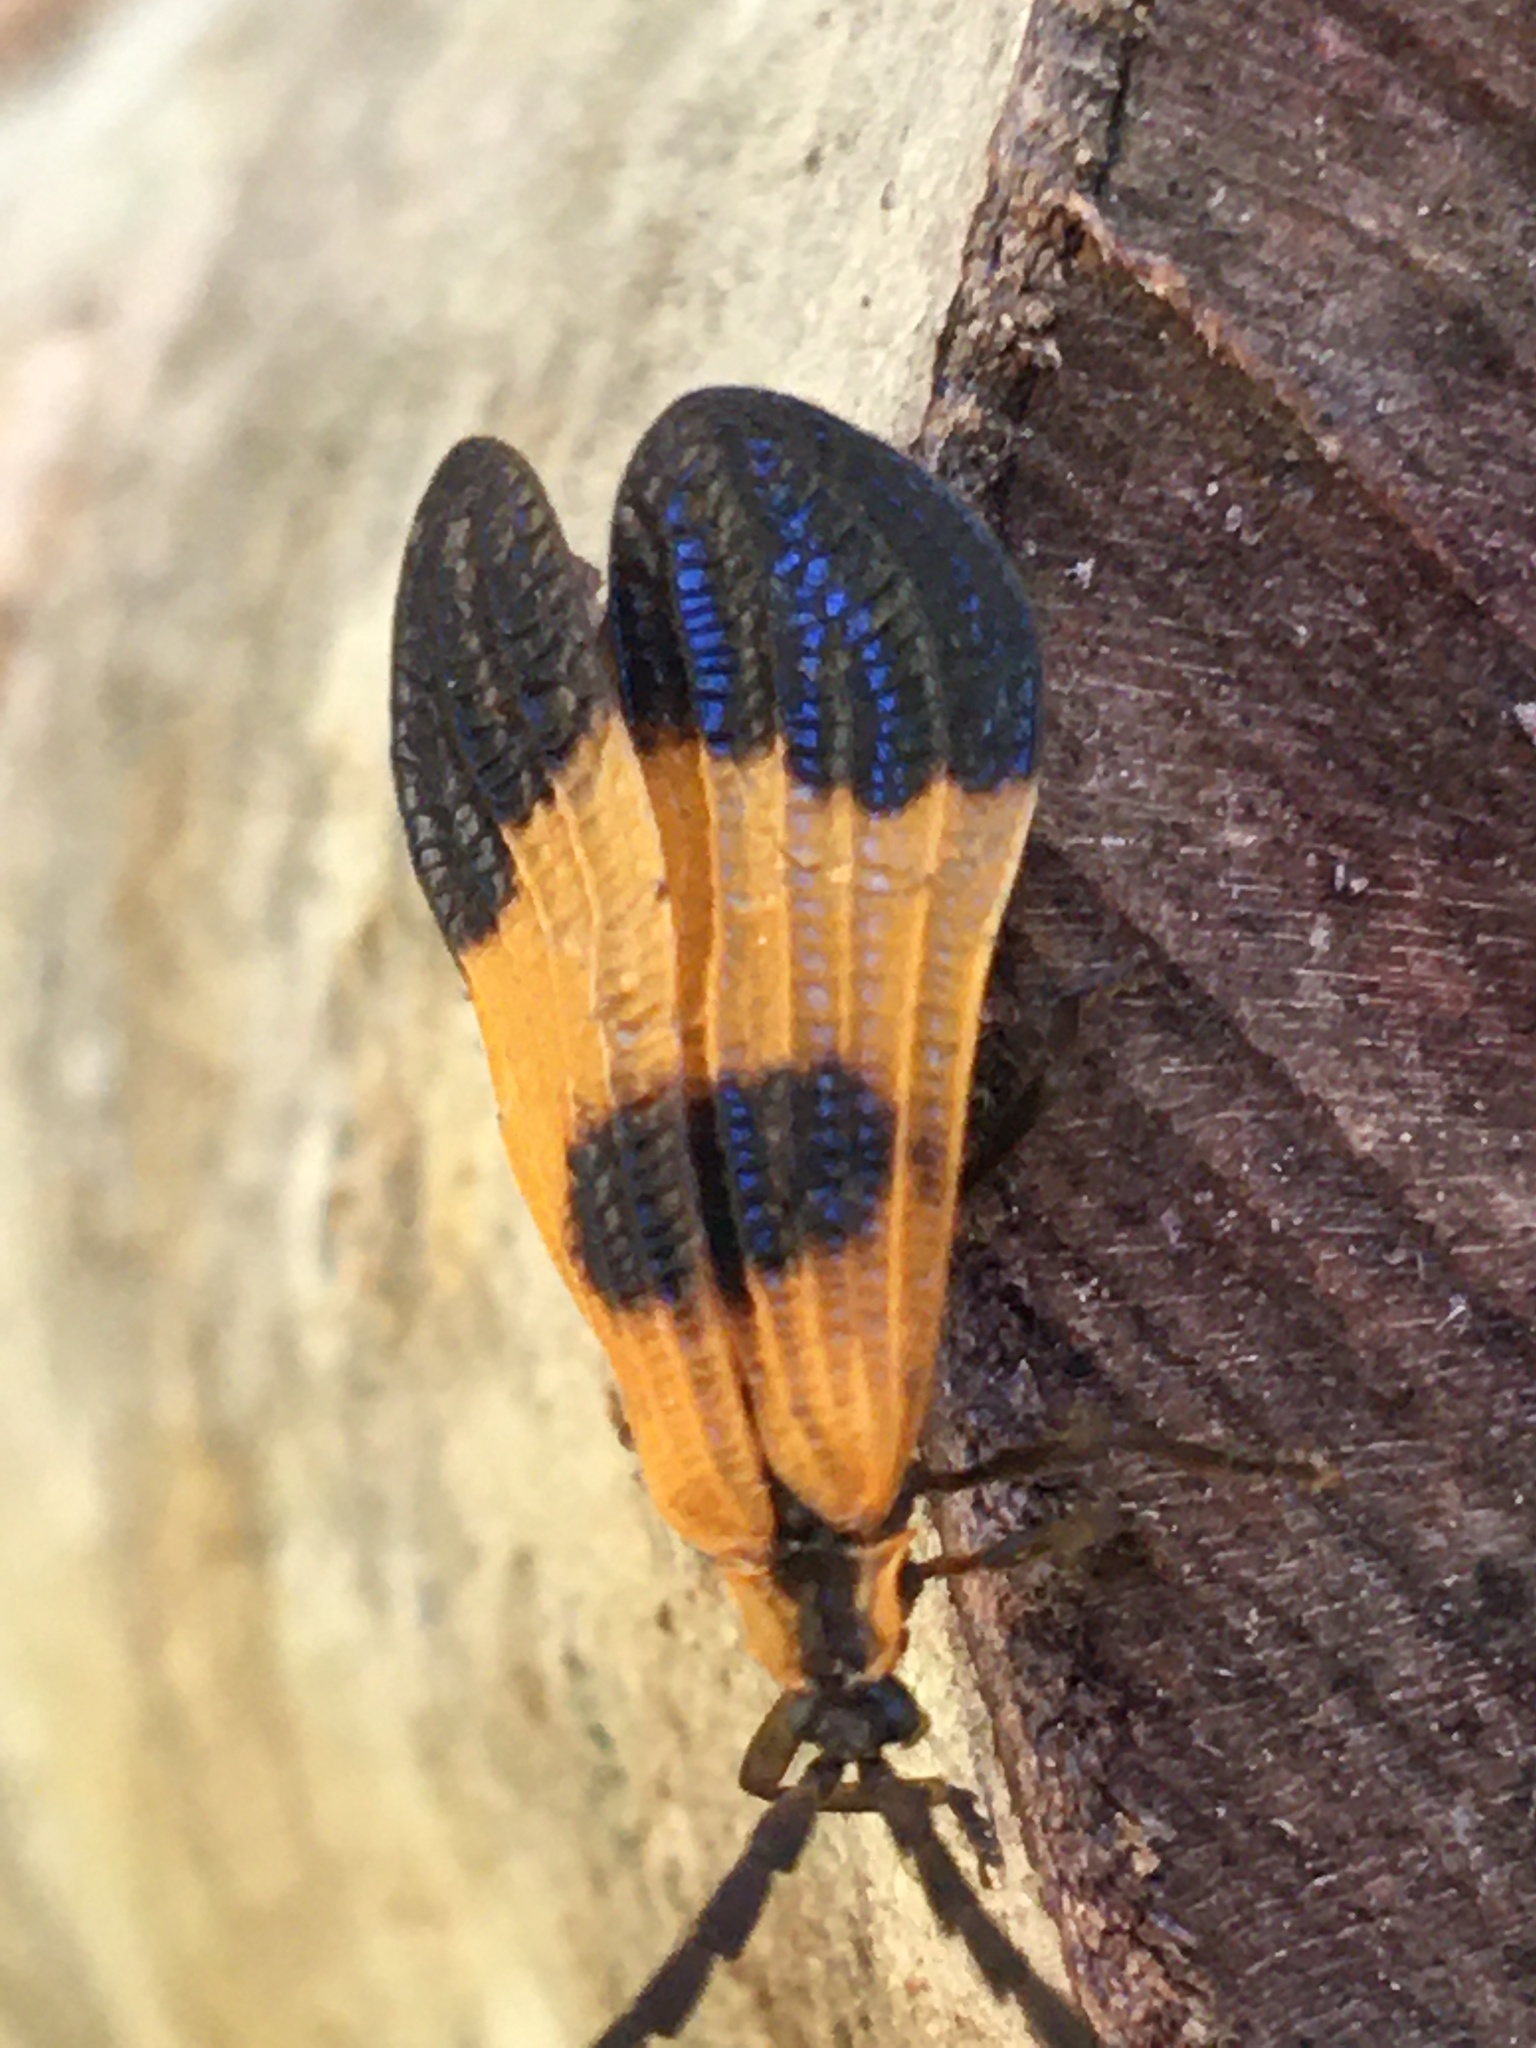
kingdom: Animalia
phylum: Arthropoda
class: Insecta
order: Coleoptera
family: Lycidae
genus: Calopteron
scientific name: Calopteron terminale
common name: End band net-winged beetle
